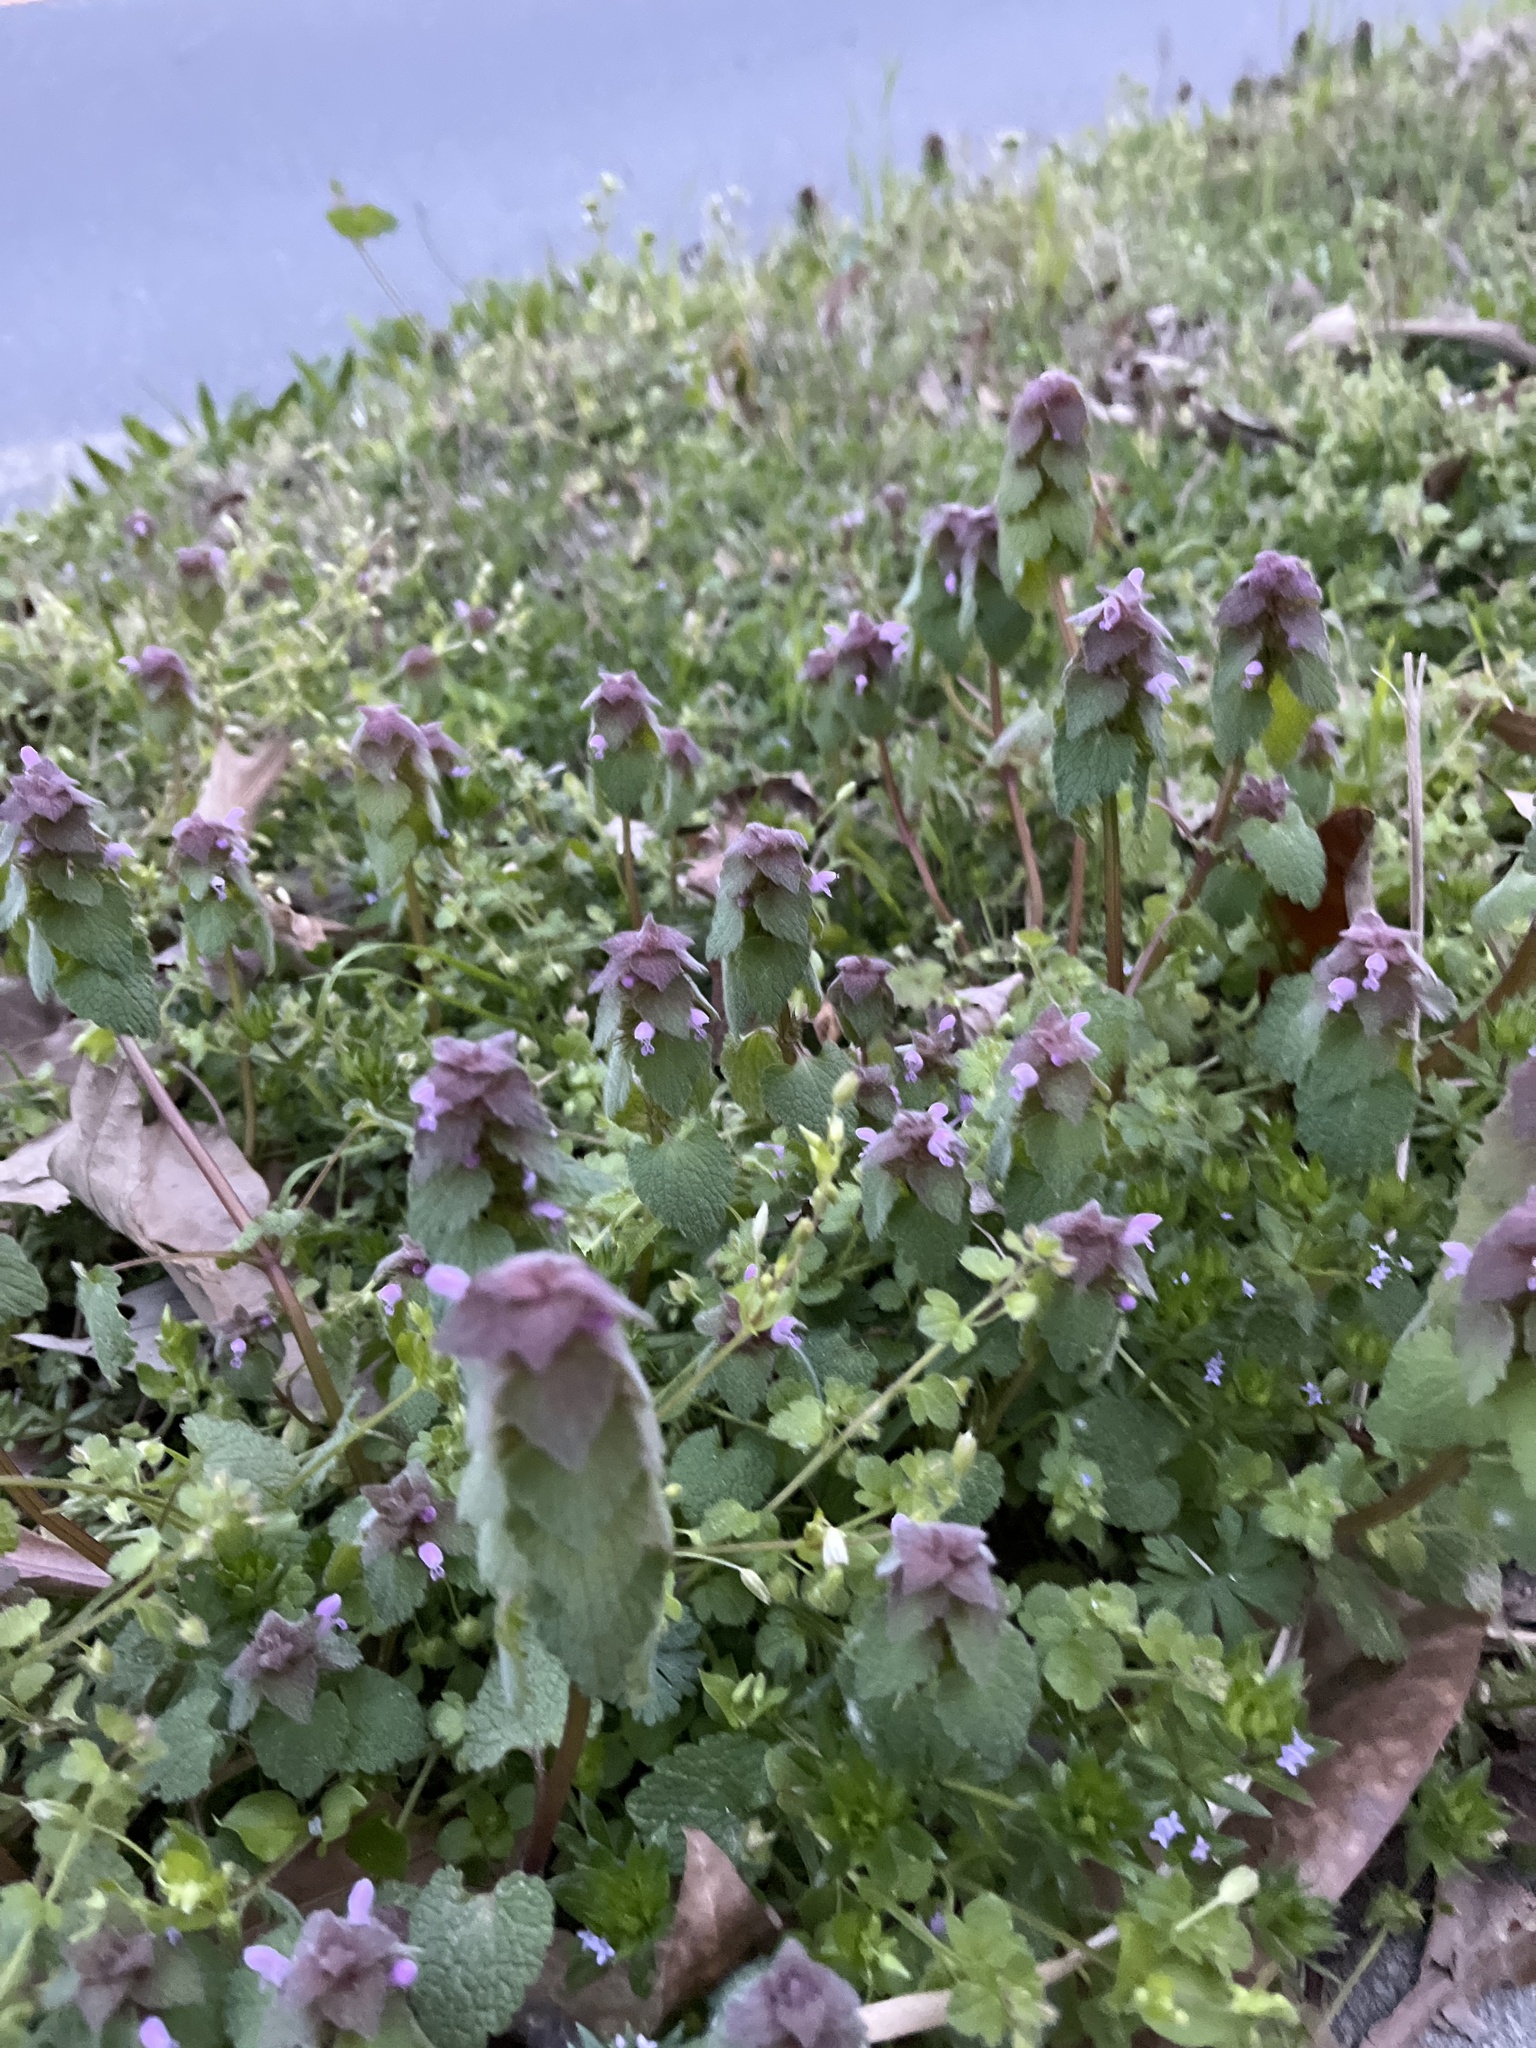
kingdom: Plantae
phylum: Tracheophyta
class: Magnoliopsida
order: Lamiales
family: Lamiaceae
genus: Lamium
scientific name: Lamium purpureum
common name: Red dead-nettle
